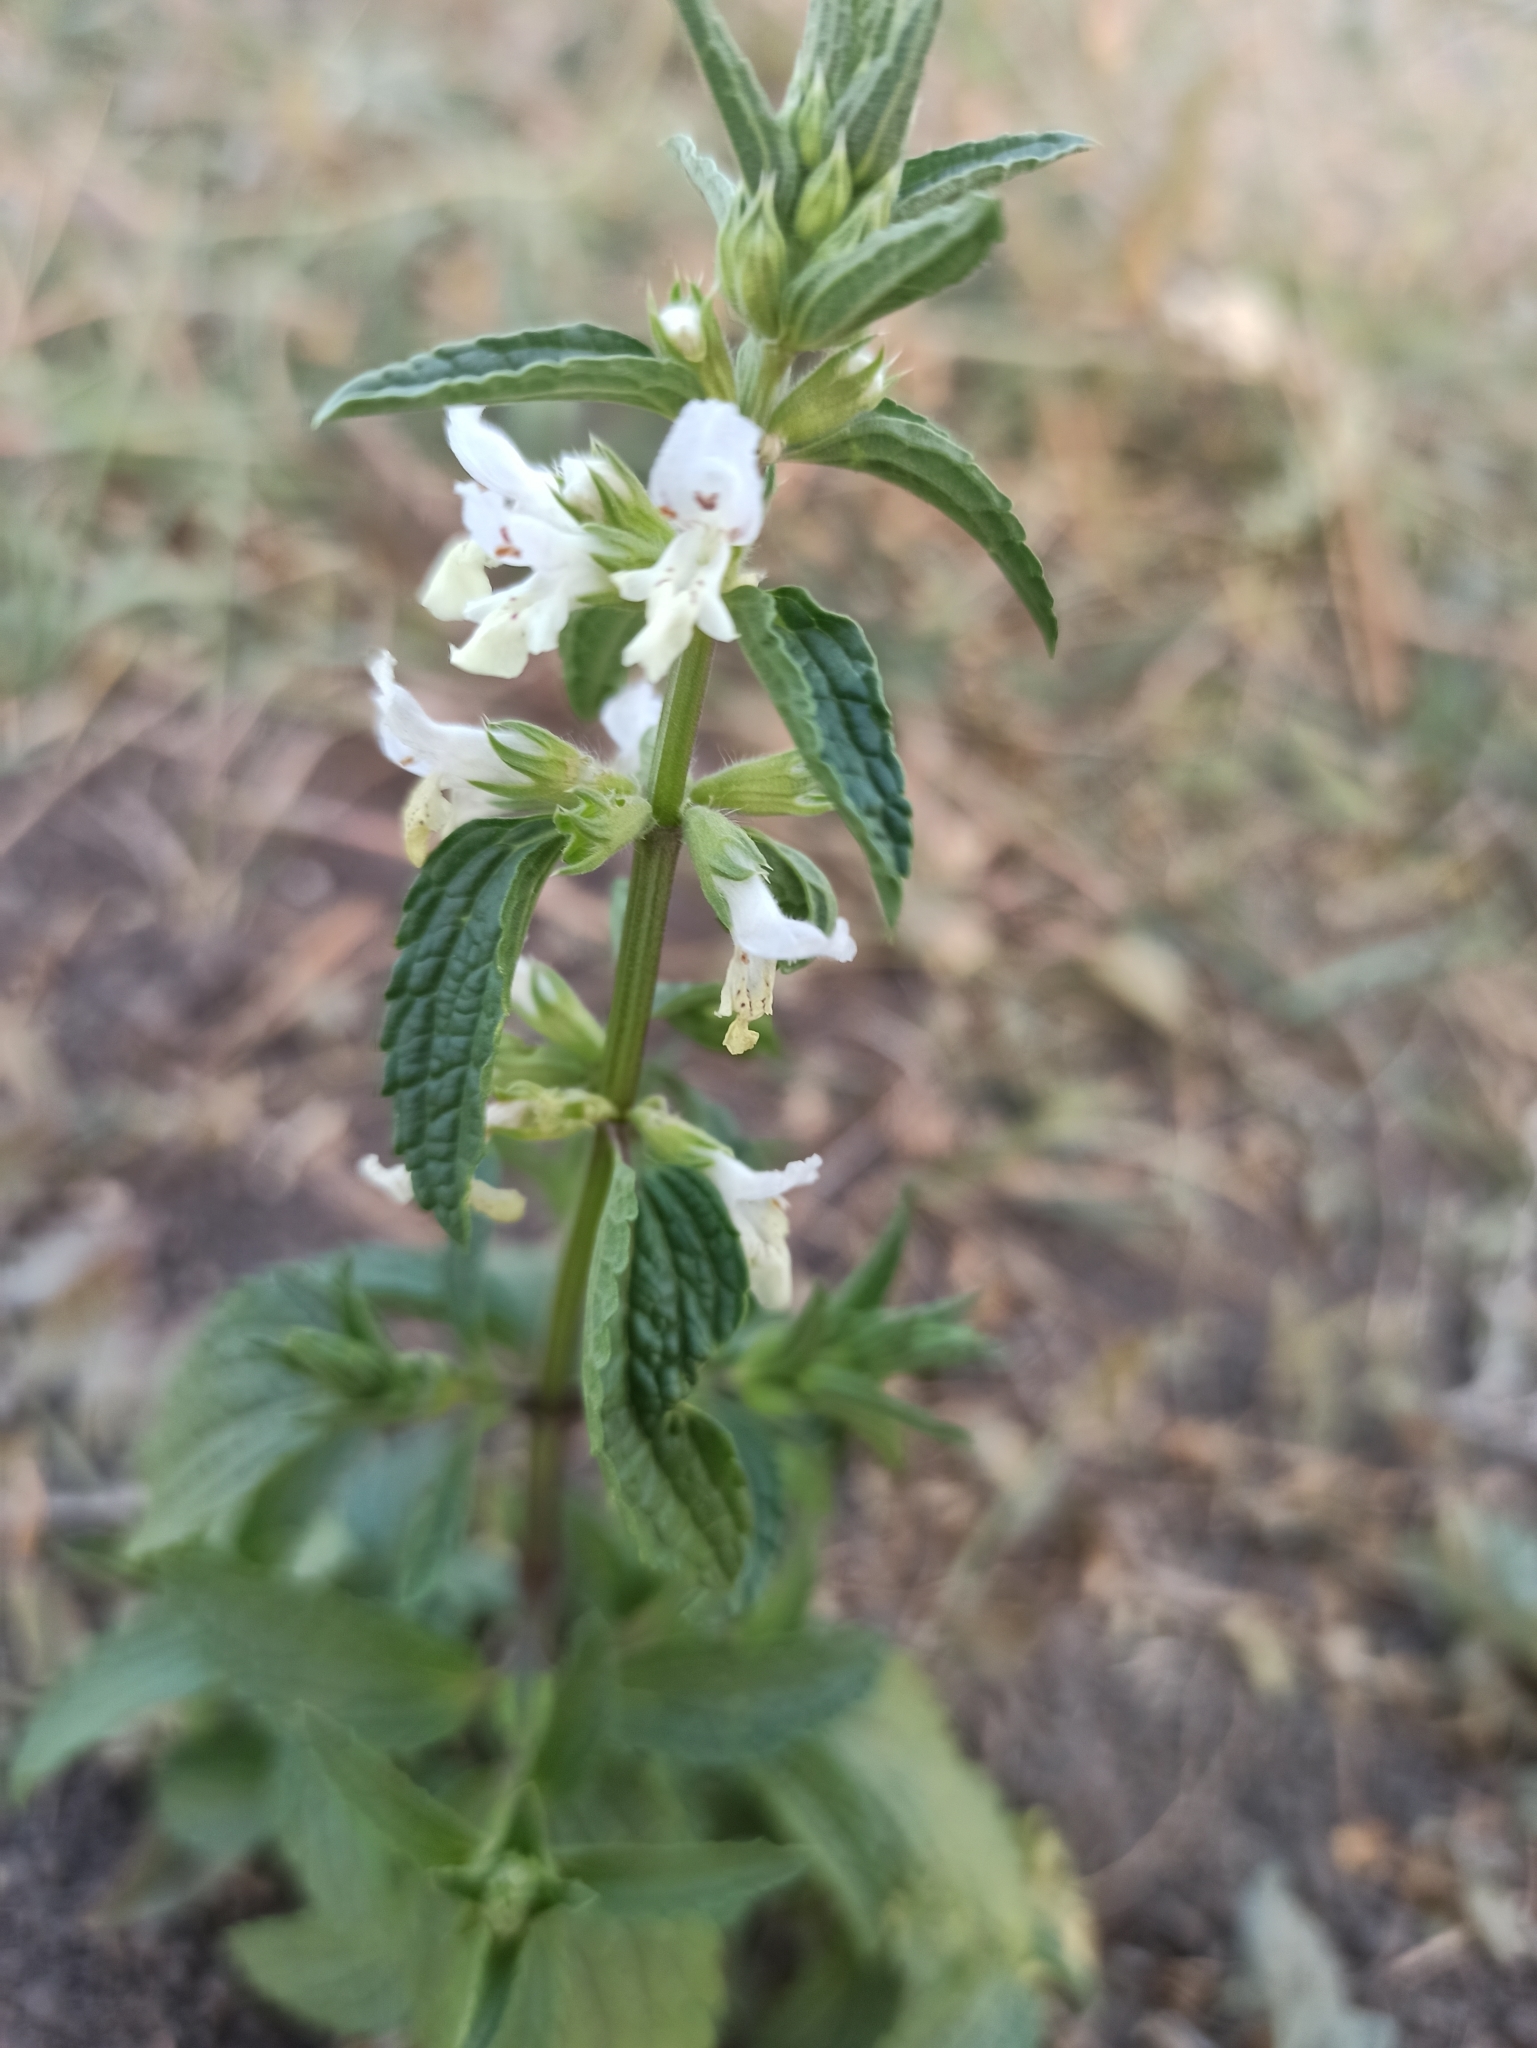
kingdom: Plantae
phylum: Tracheophyta
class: Magnoliopsida
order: Lamiales
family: Lamiaceae
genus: Stachys
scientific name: Stachys annua
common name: Annual yellow-woundwort
